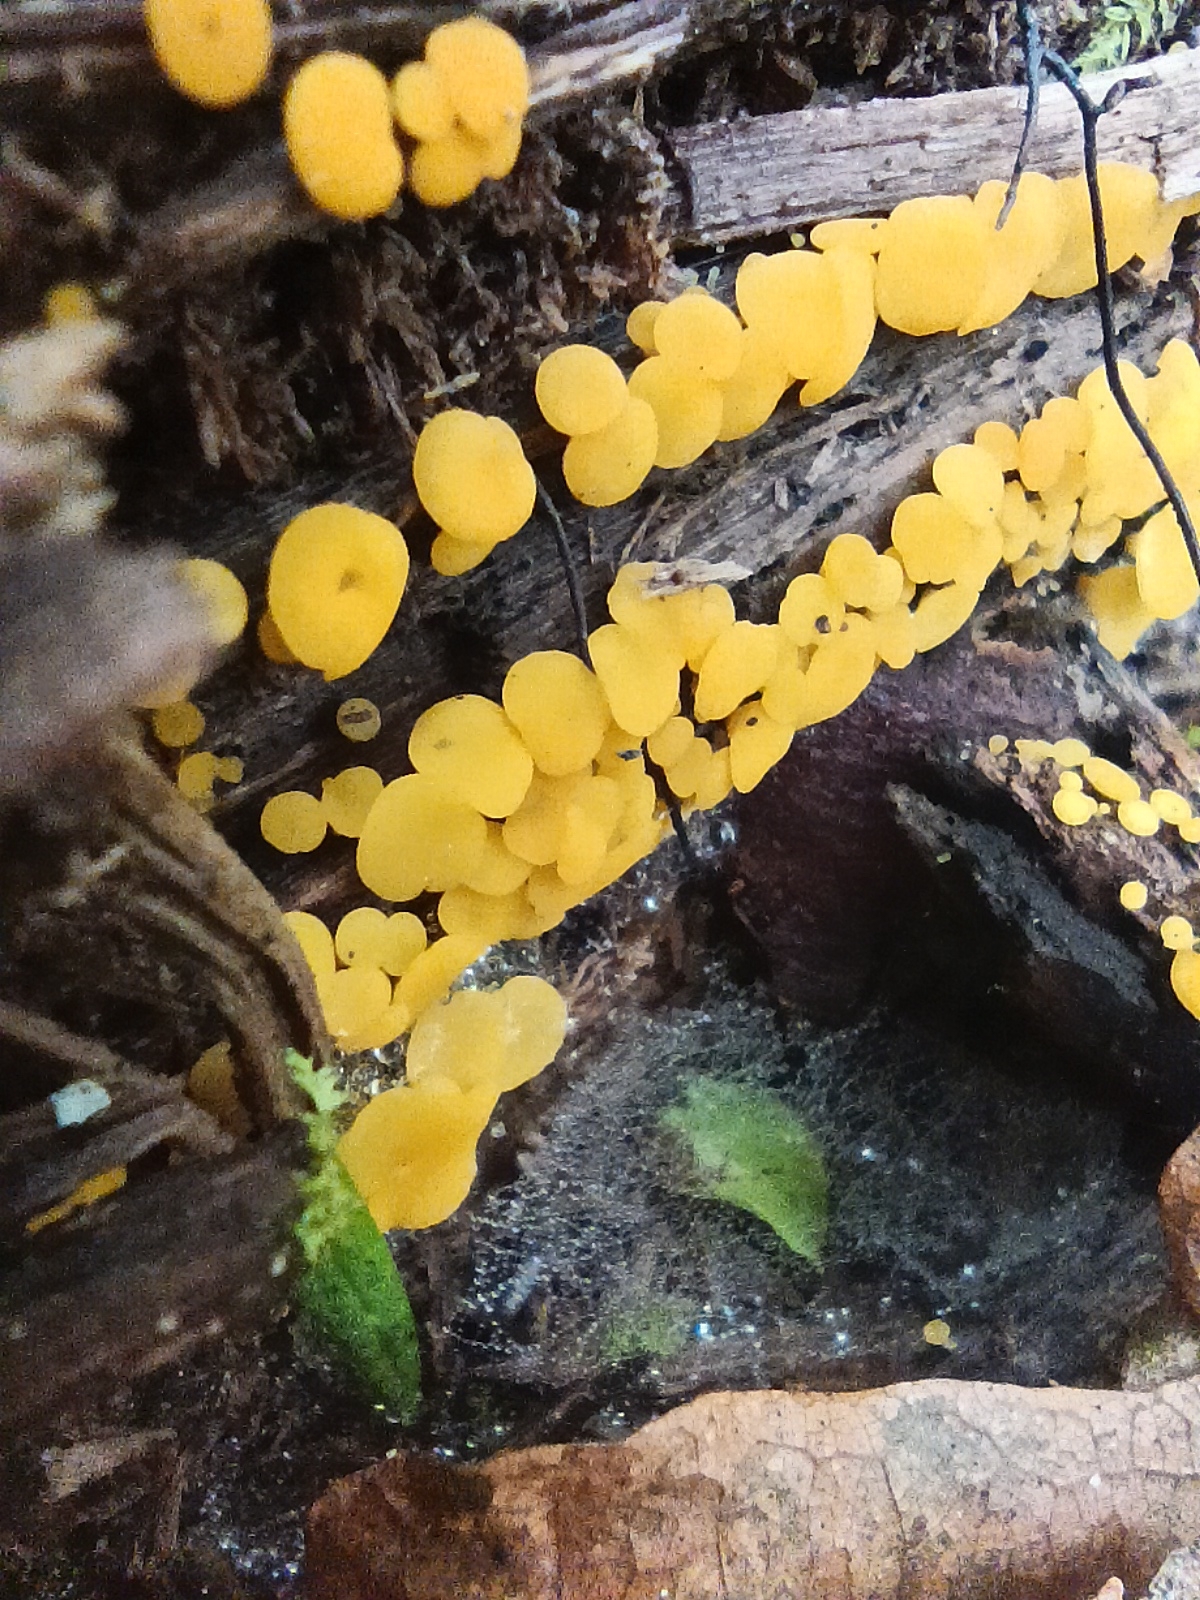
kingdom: Fungi
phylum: Ascomycota
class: Leotiomycetes
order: Helotiales
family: Pezizellaceae
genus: Calycina
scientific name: Calycina citrina
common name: Yellow fairy cups
